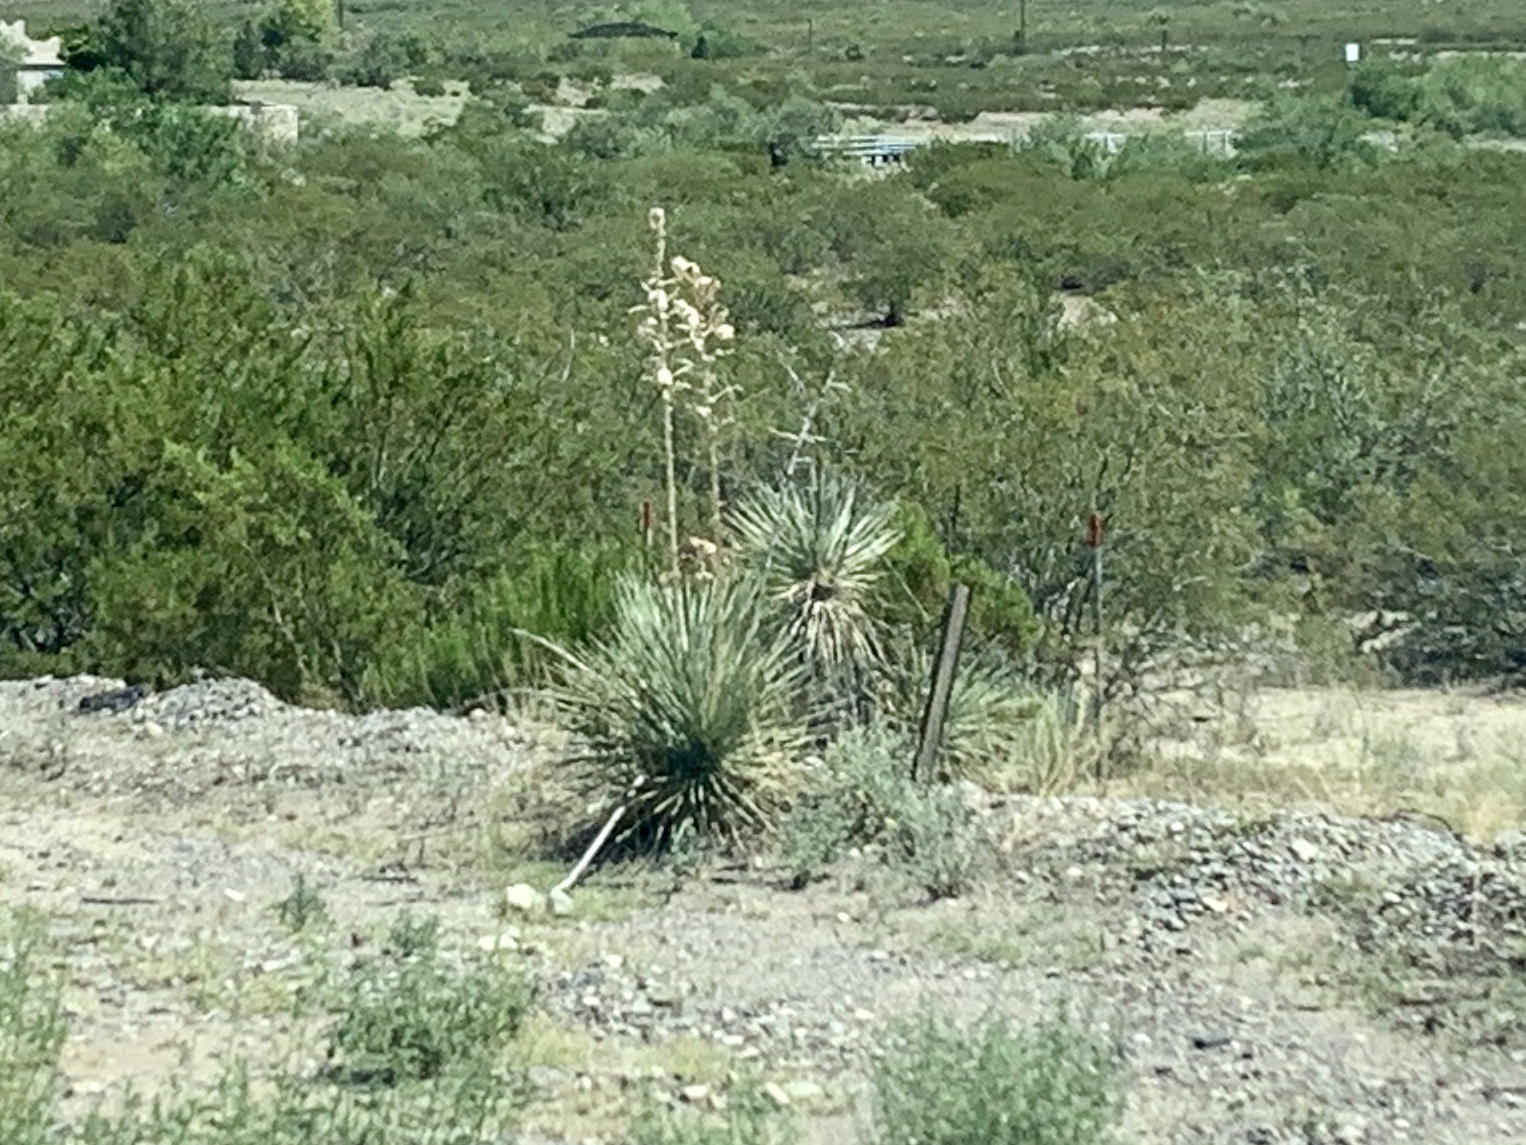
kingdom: Plantae
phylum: Tracheophyta
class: Liliopsida
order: Asparagales
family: Asparagaceae
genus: Yucca
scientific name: Yucca elata
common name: Palmella
